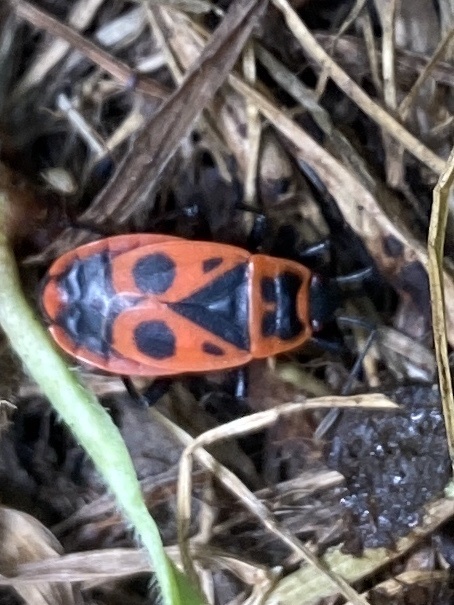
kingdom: Animalia
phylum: Arthropoda
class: Insecta
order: Hemiptera
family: Pyrrhocoridae
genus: Pyrrhocoris
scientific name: Pyrrhocoris apterus
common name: Firebug
